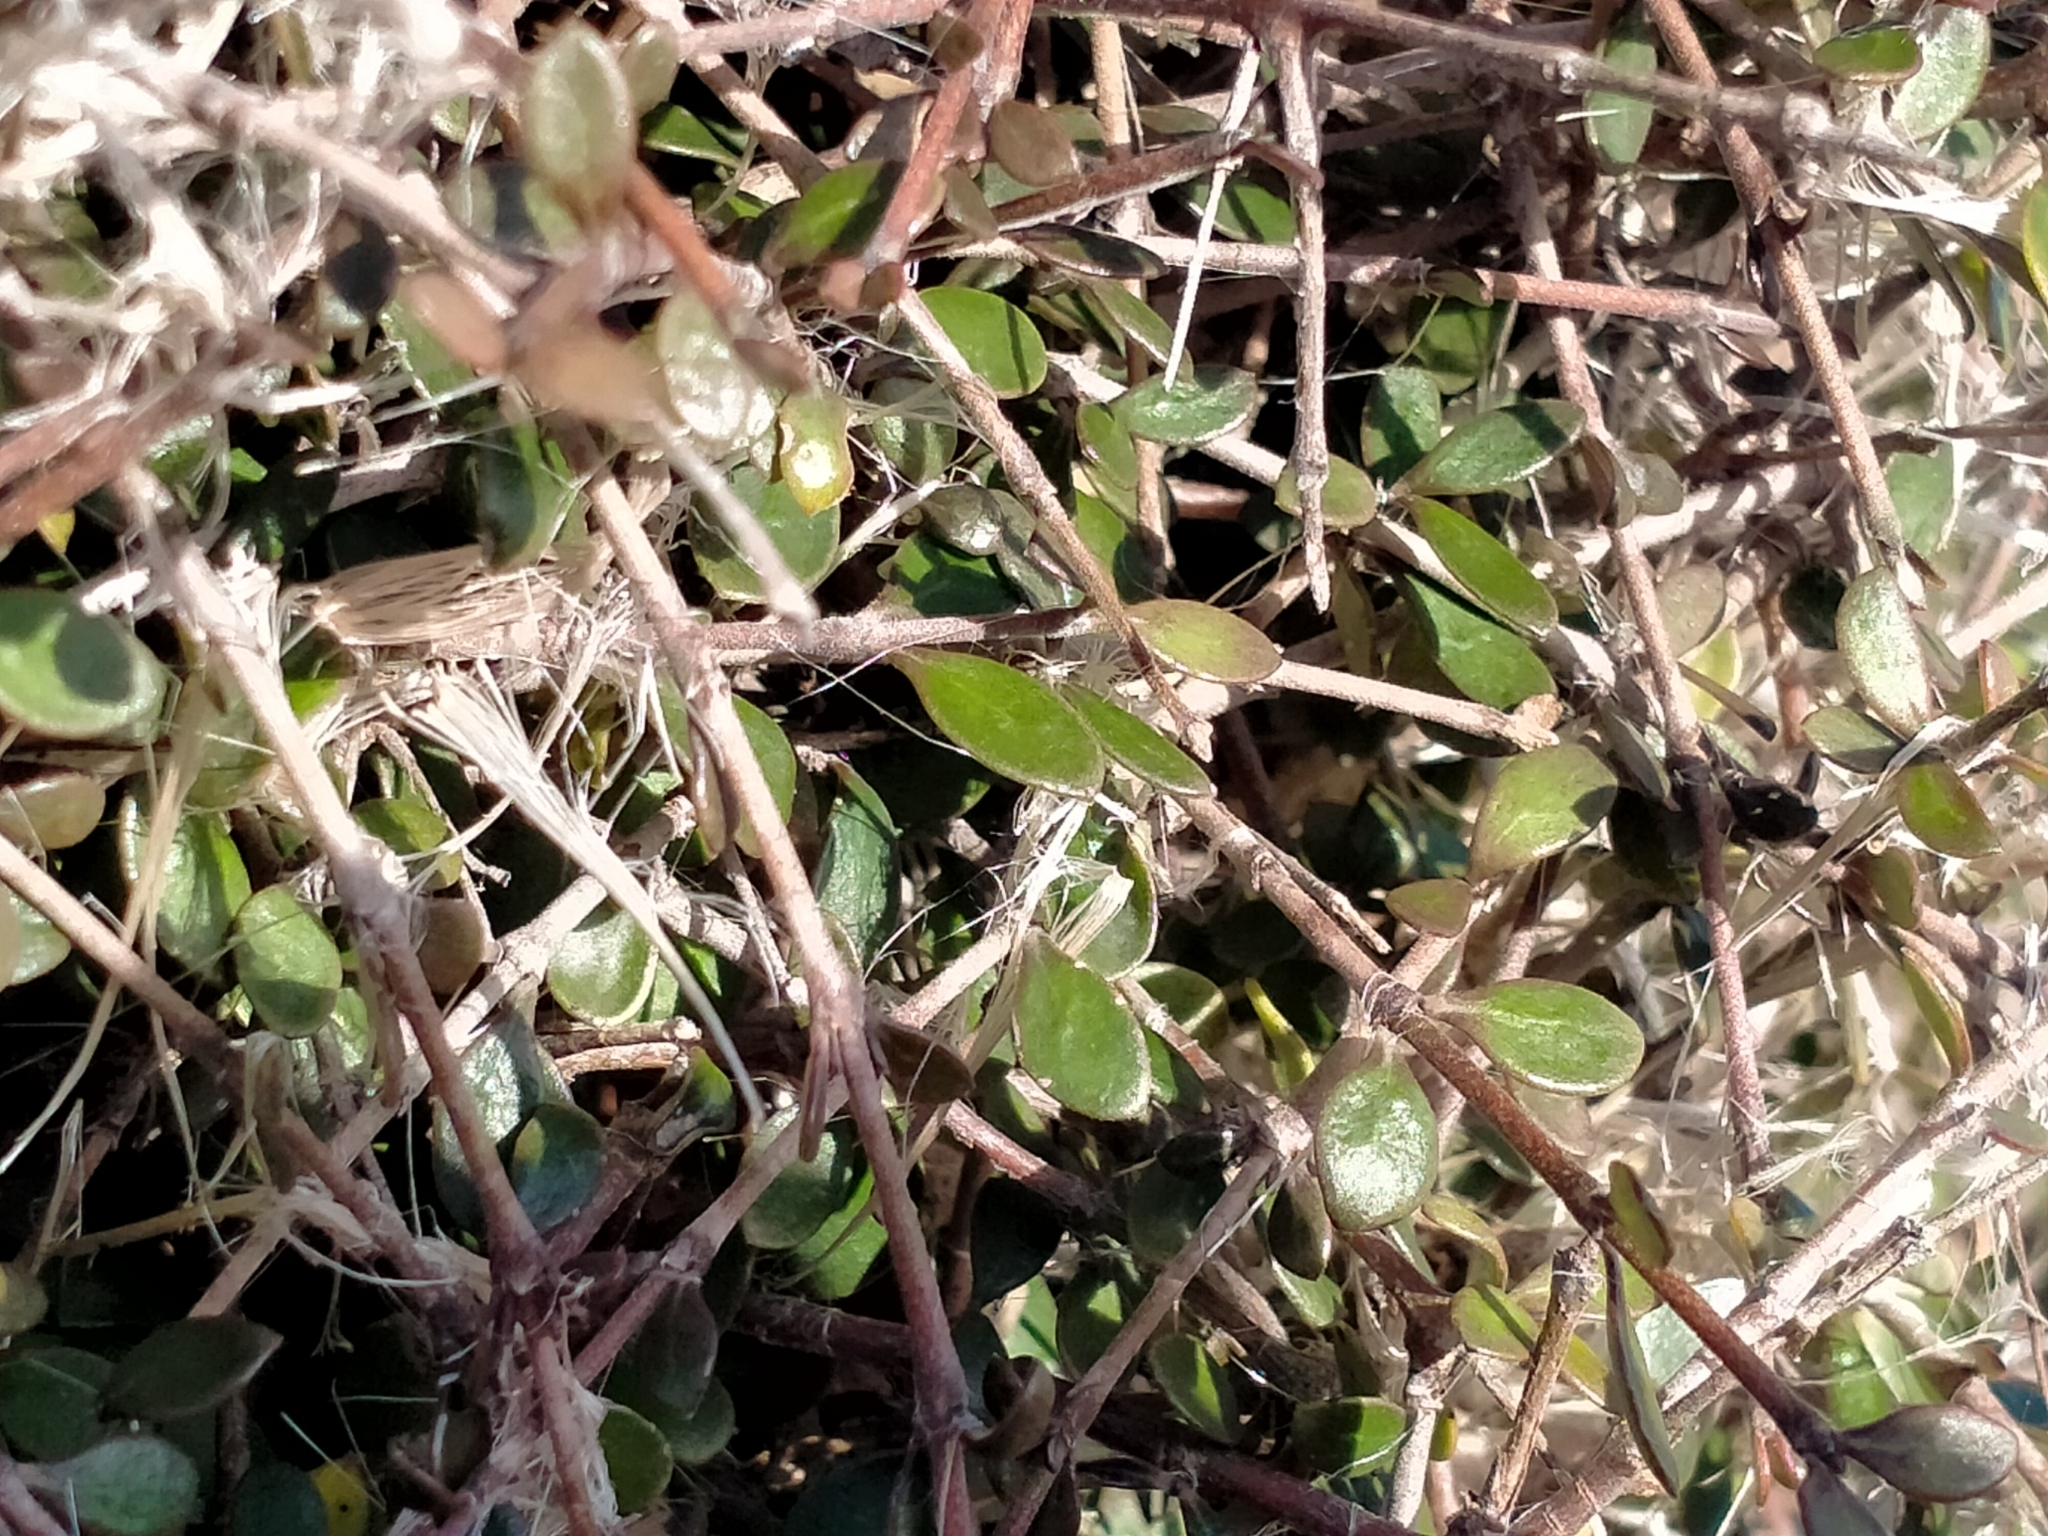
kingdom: Plantae
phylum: Tracheophyta
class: Magnoliopsida
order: Gentianales
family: Rubiaceae
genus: Coprosma
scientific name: Coprosma crassifolia
